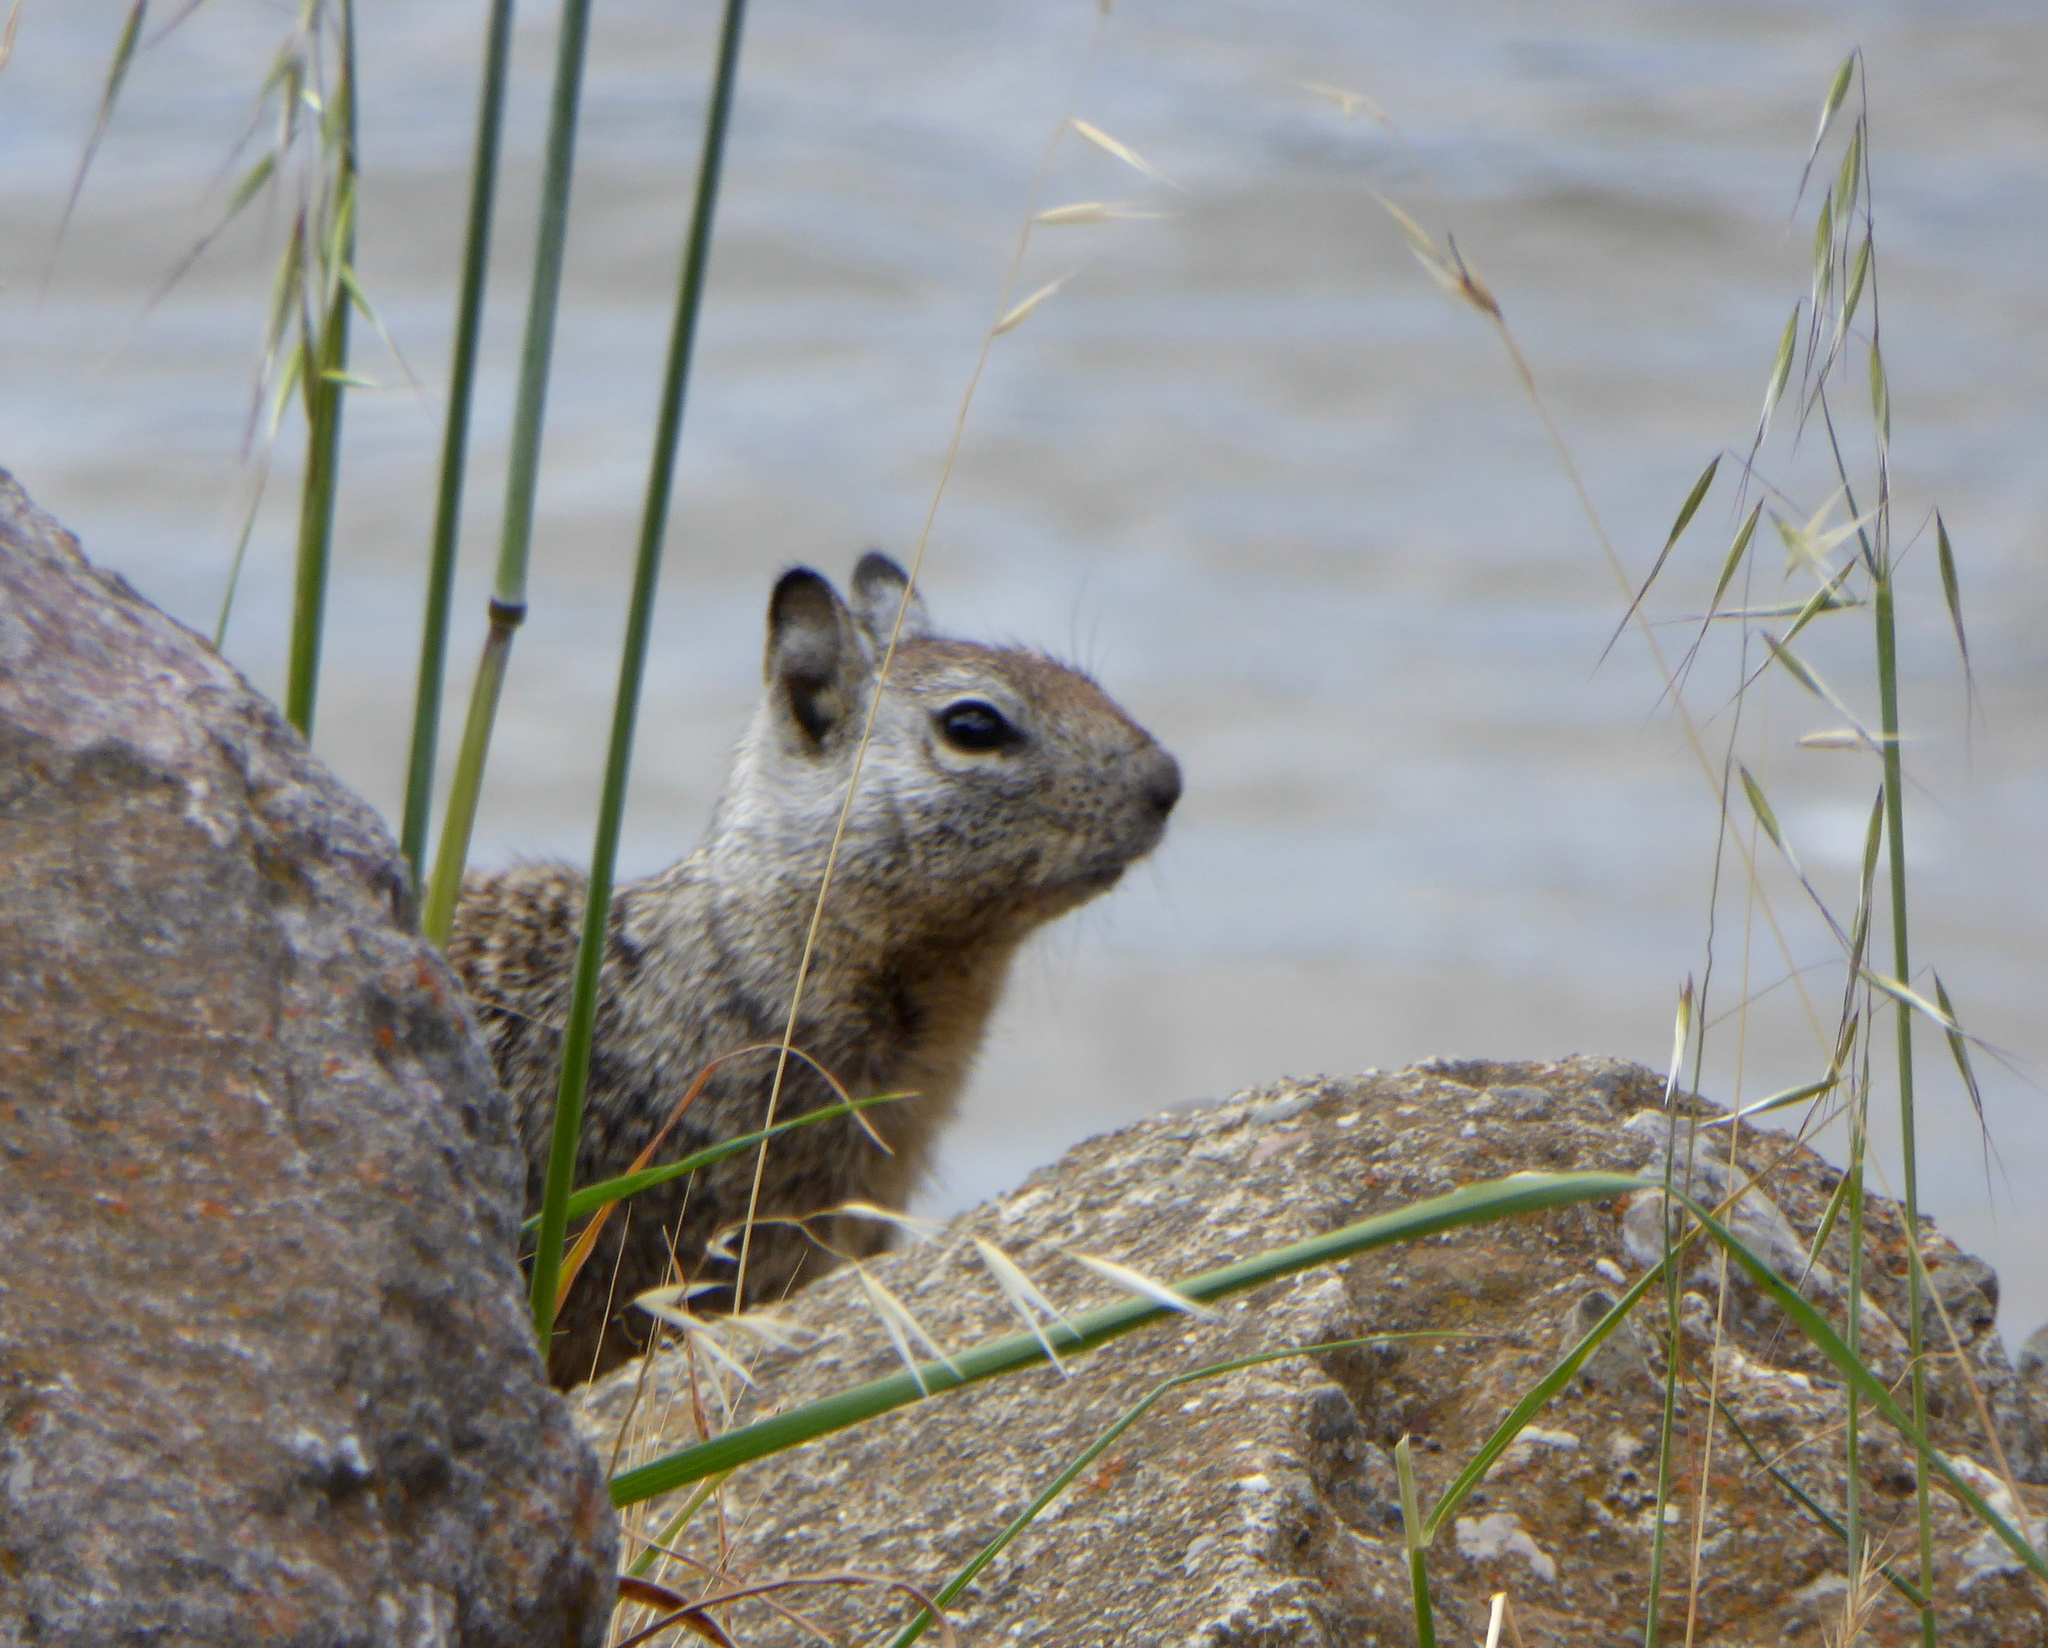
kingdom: Animalia
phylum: Chordata
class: Mammalia
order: Rodentia
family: Sciuridae
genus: Otospermophilus
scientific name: Otospermophilus beecheyi
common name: California ground squirrel
